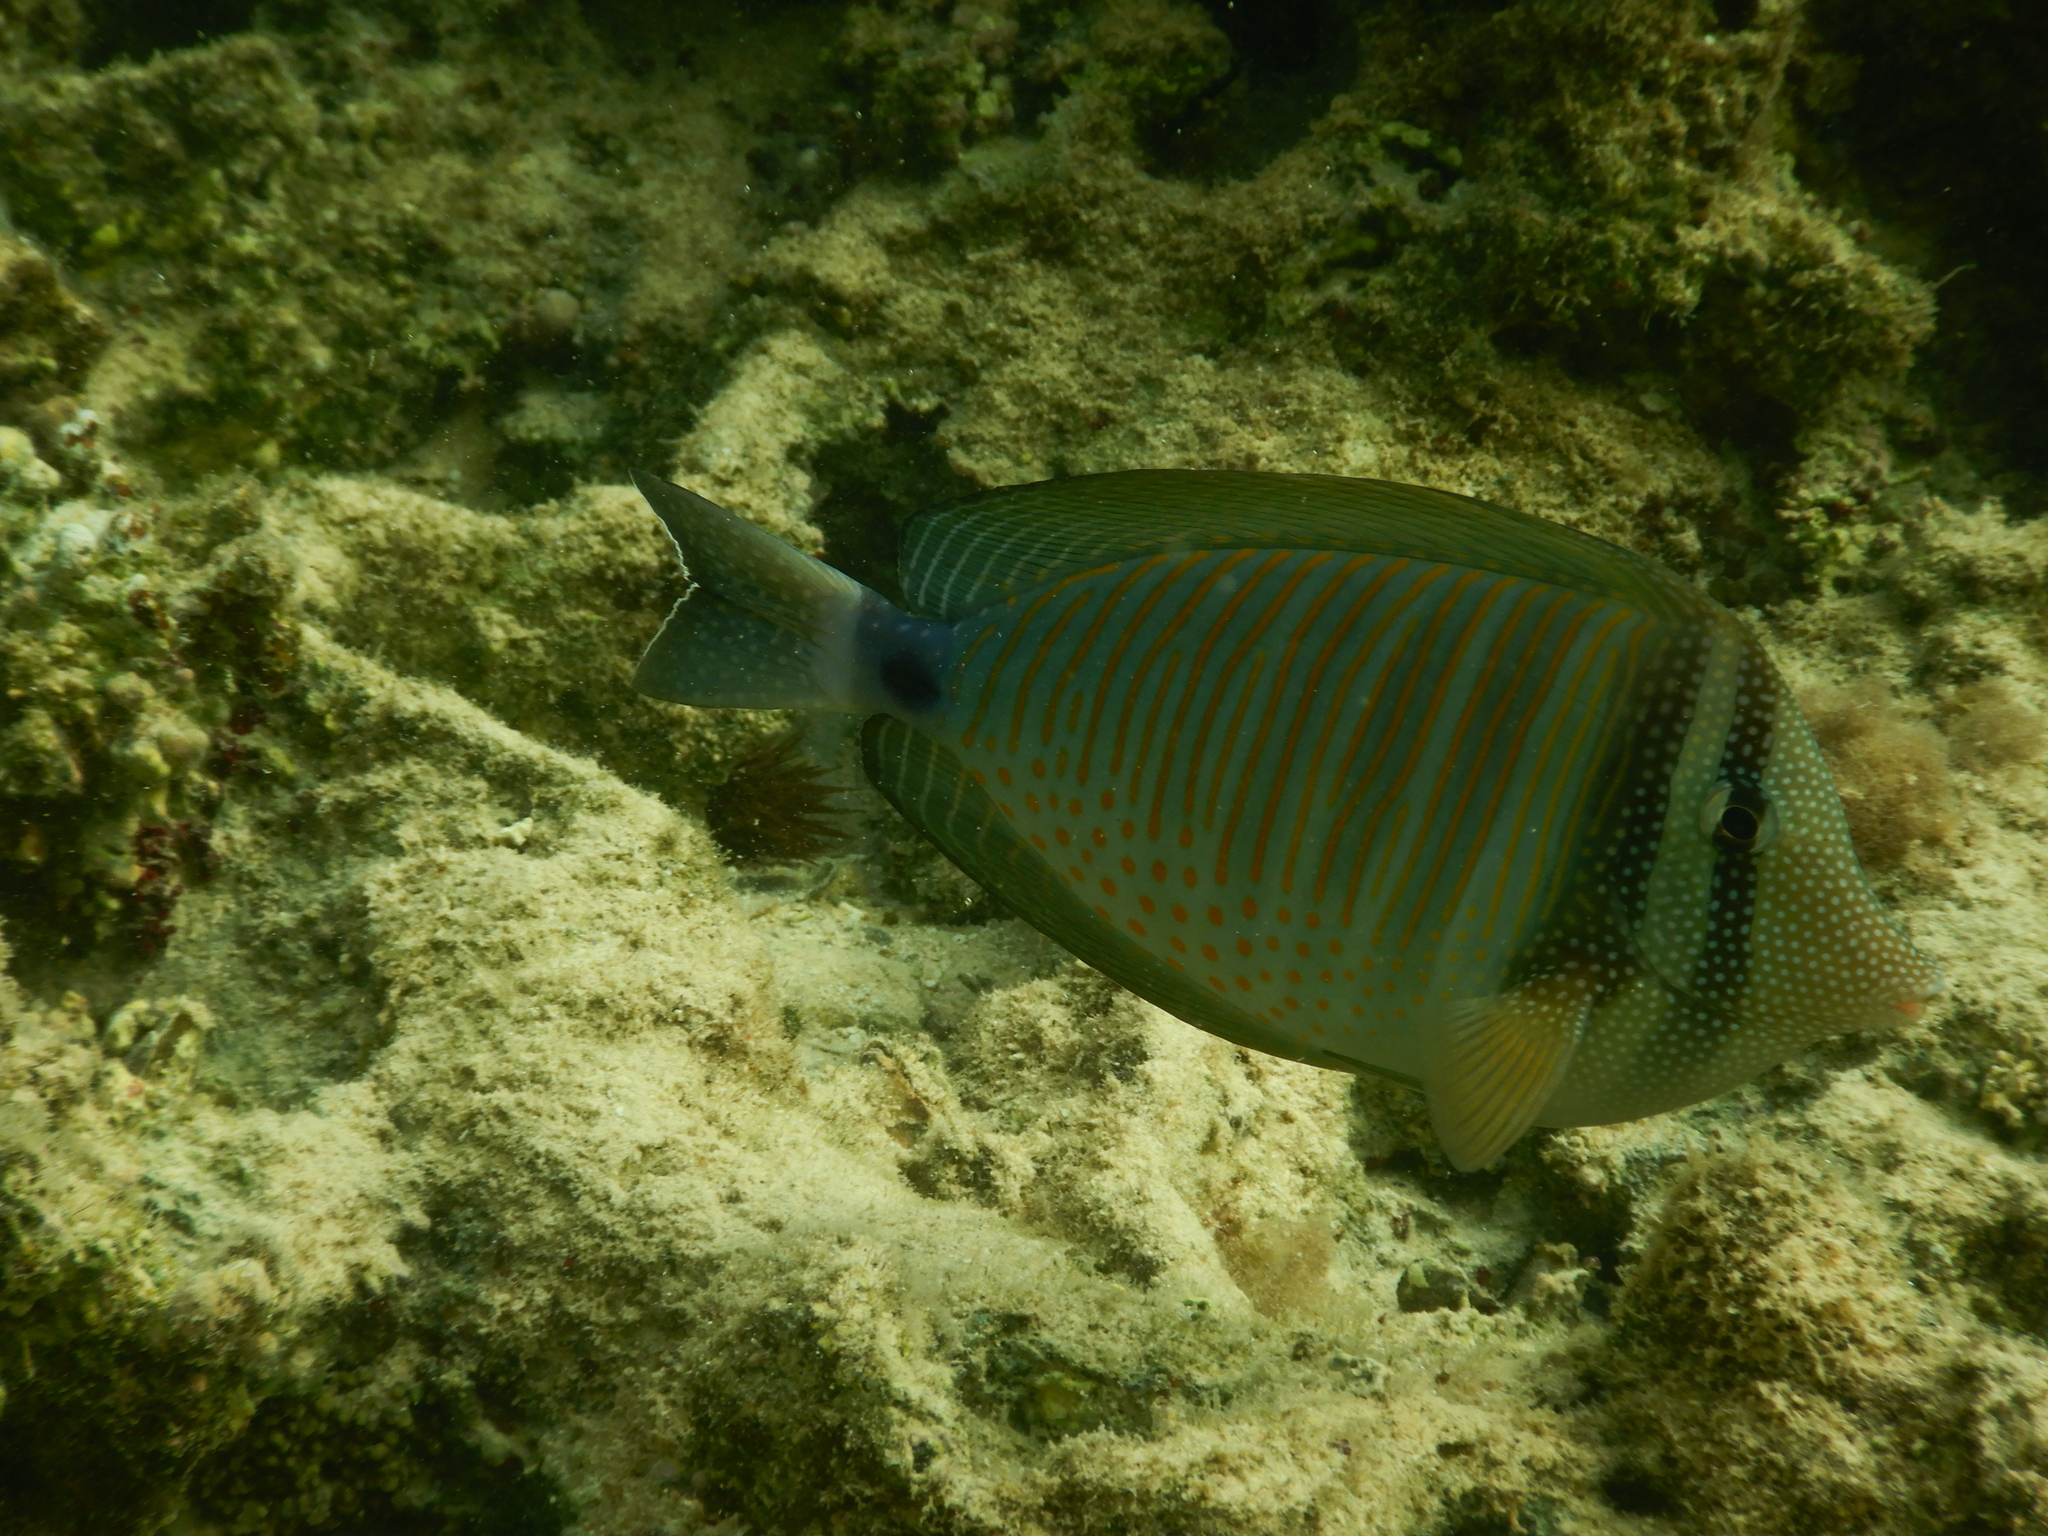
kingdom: Animalia
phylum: Chordata
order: Perciformes
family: Acanthuridae
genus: Zebrasoma
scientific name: Zebrasoma desjardinii
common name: Desjardin's sailfin tang
